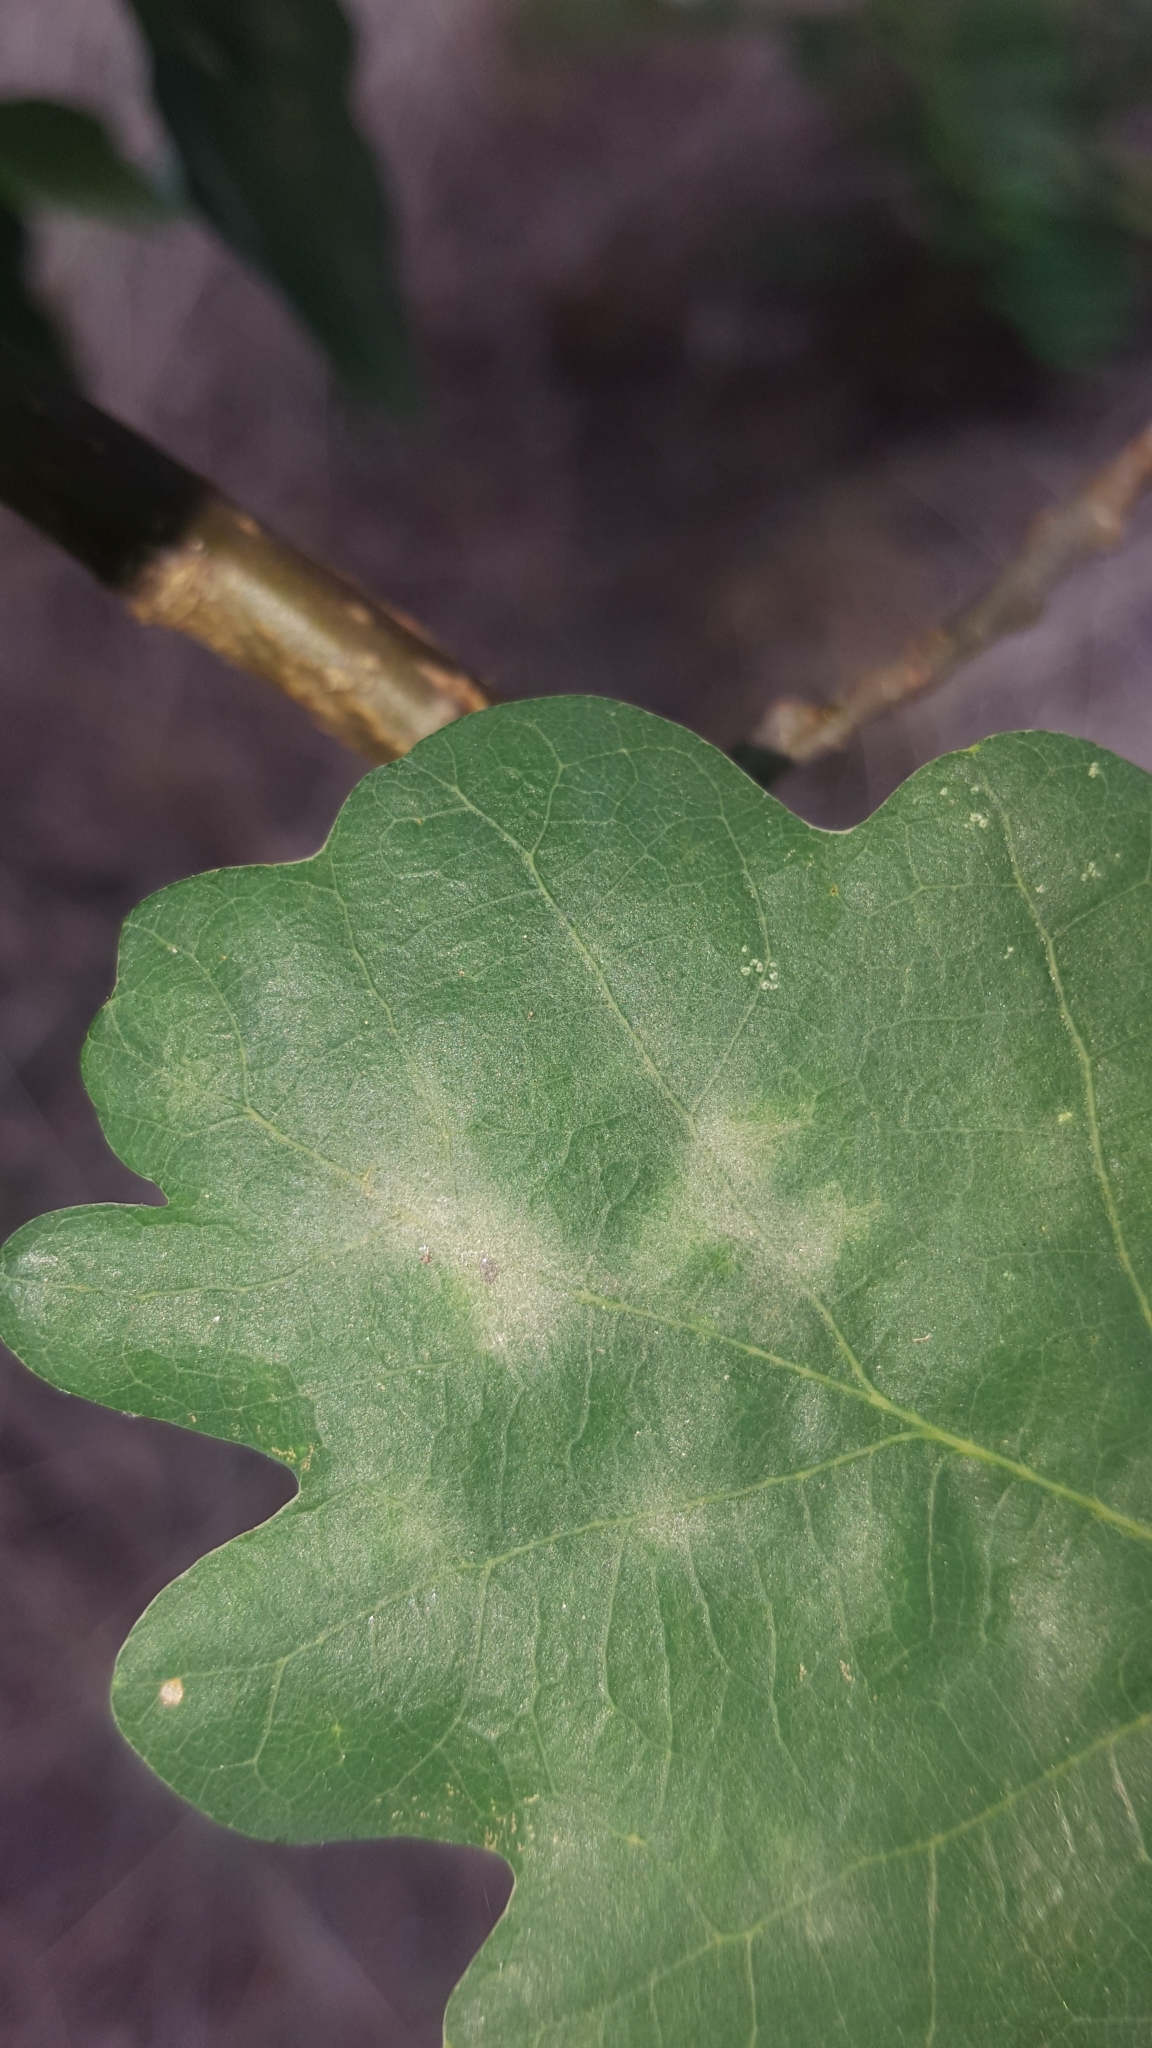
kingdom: Fungi
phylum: Ascomycota
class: Leotiomycetes
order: Helotiales
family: Erysiphaceae
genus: Erysiphe
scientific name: Erysiphe
